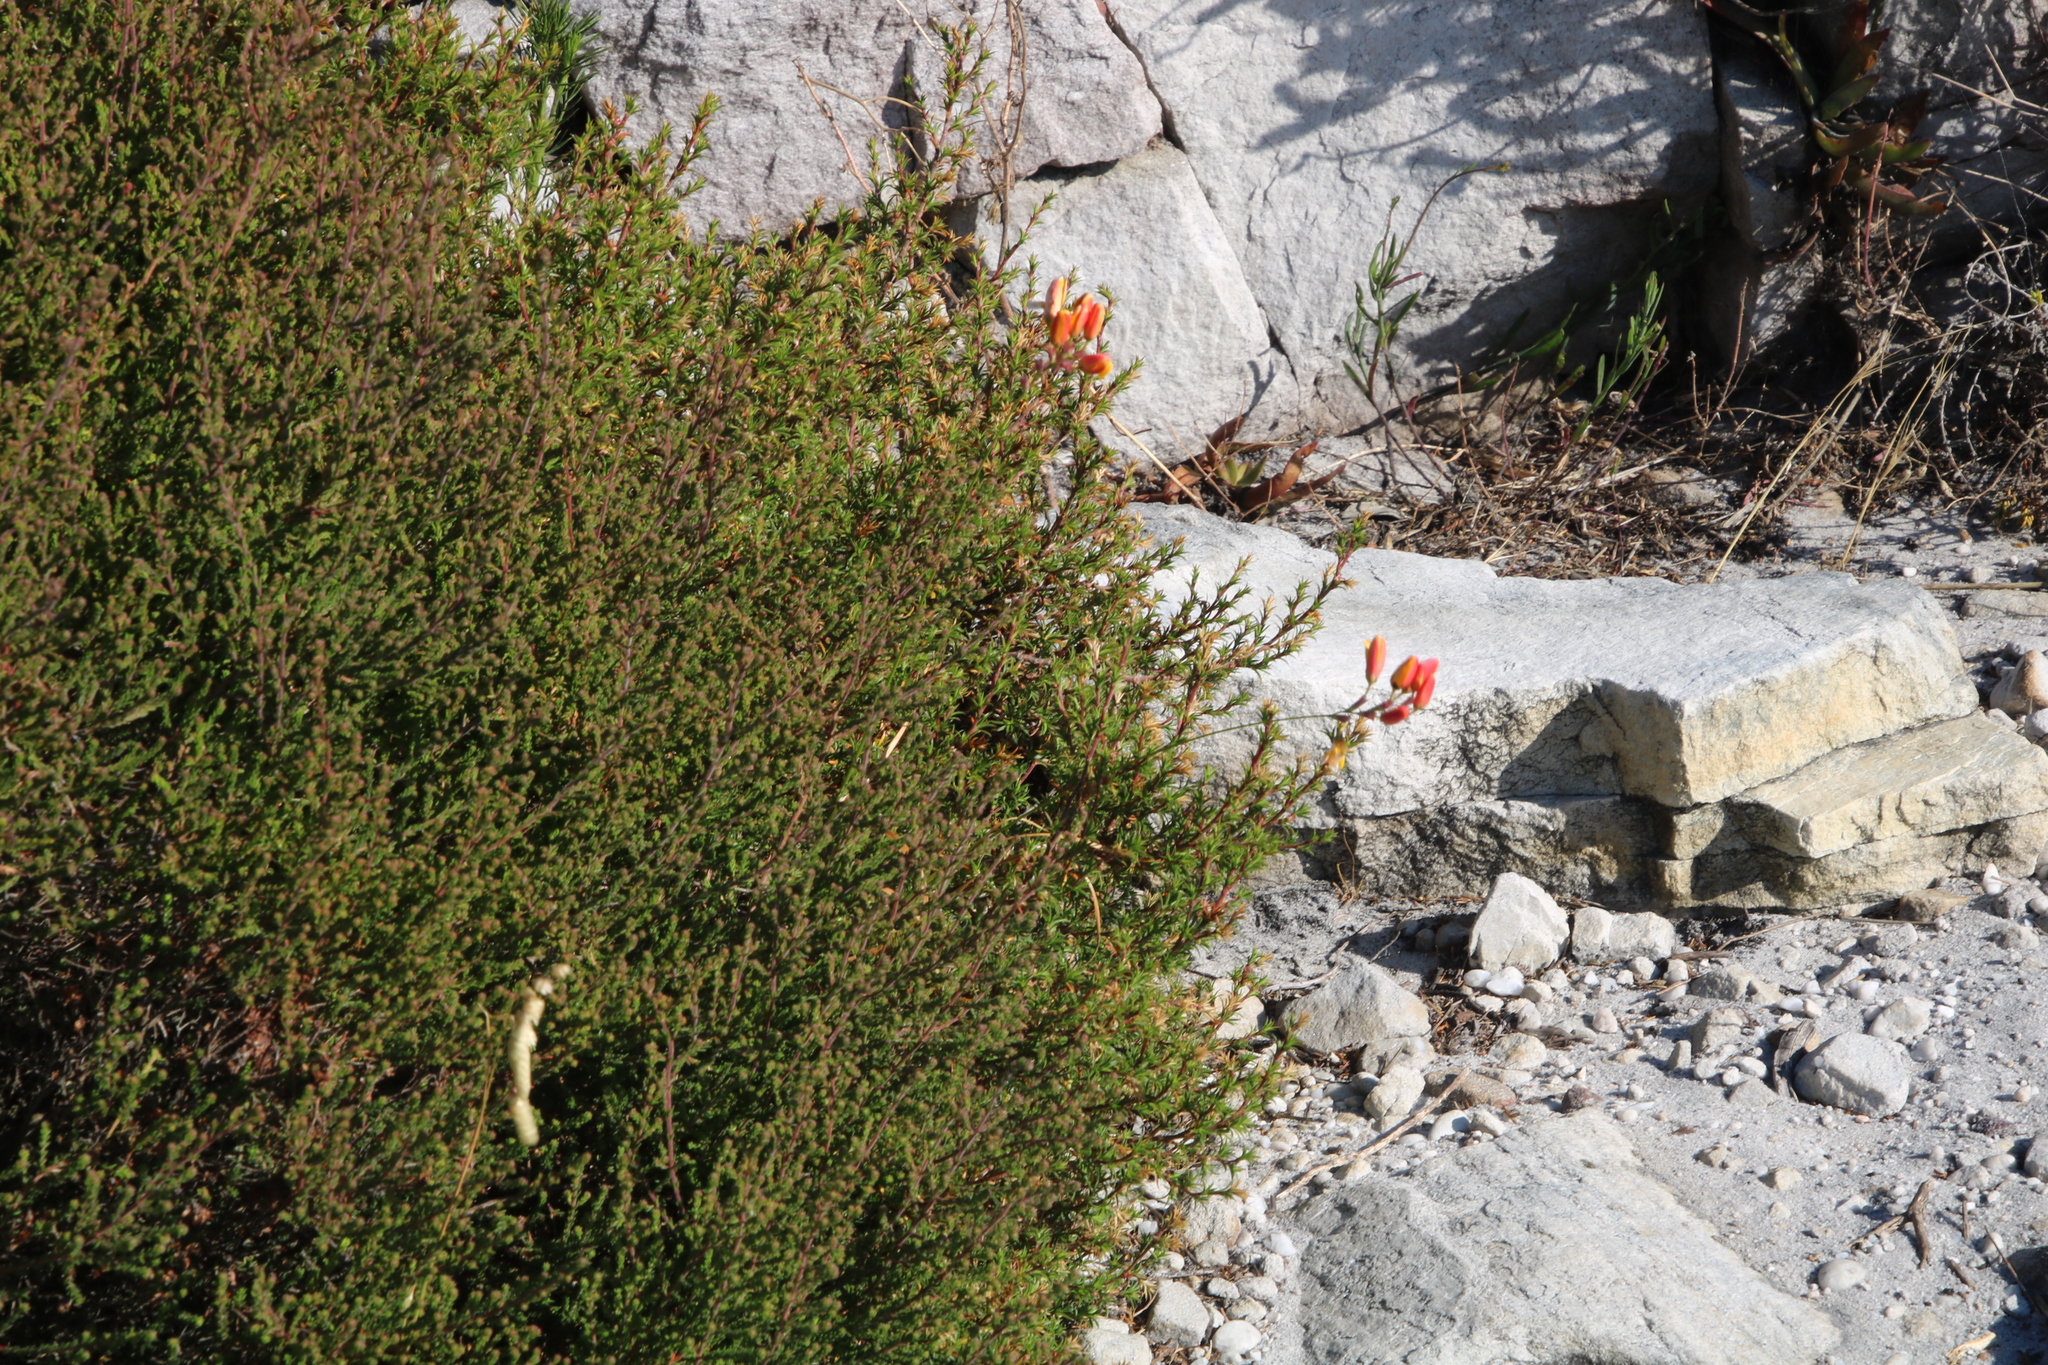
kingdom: Plantae
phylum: Tracheophyta
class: Liliopsida
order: Asparagales
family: Iridaceae
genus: Ixia
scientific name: Ixia dubia
